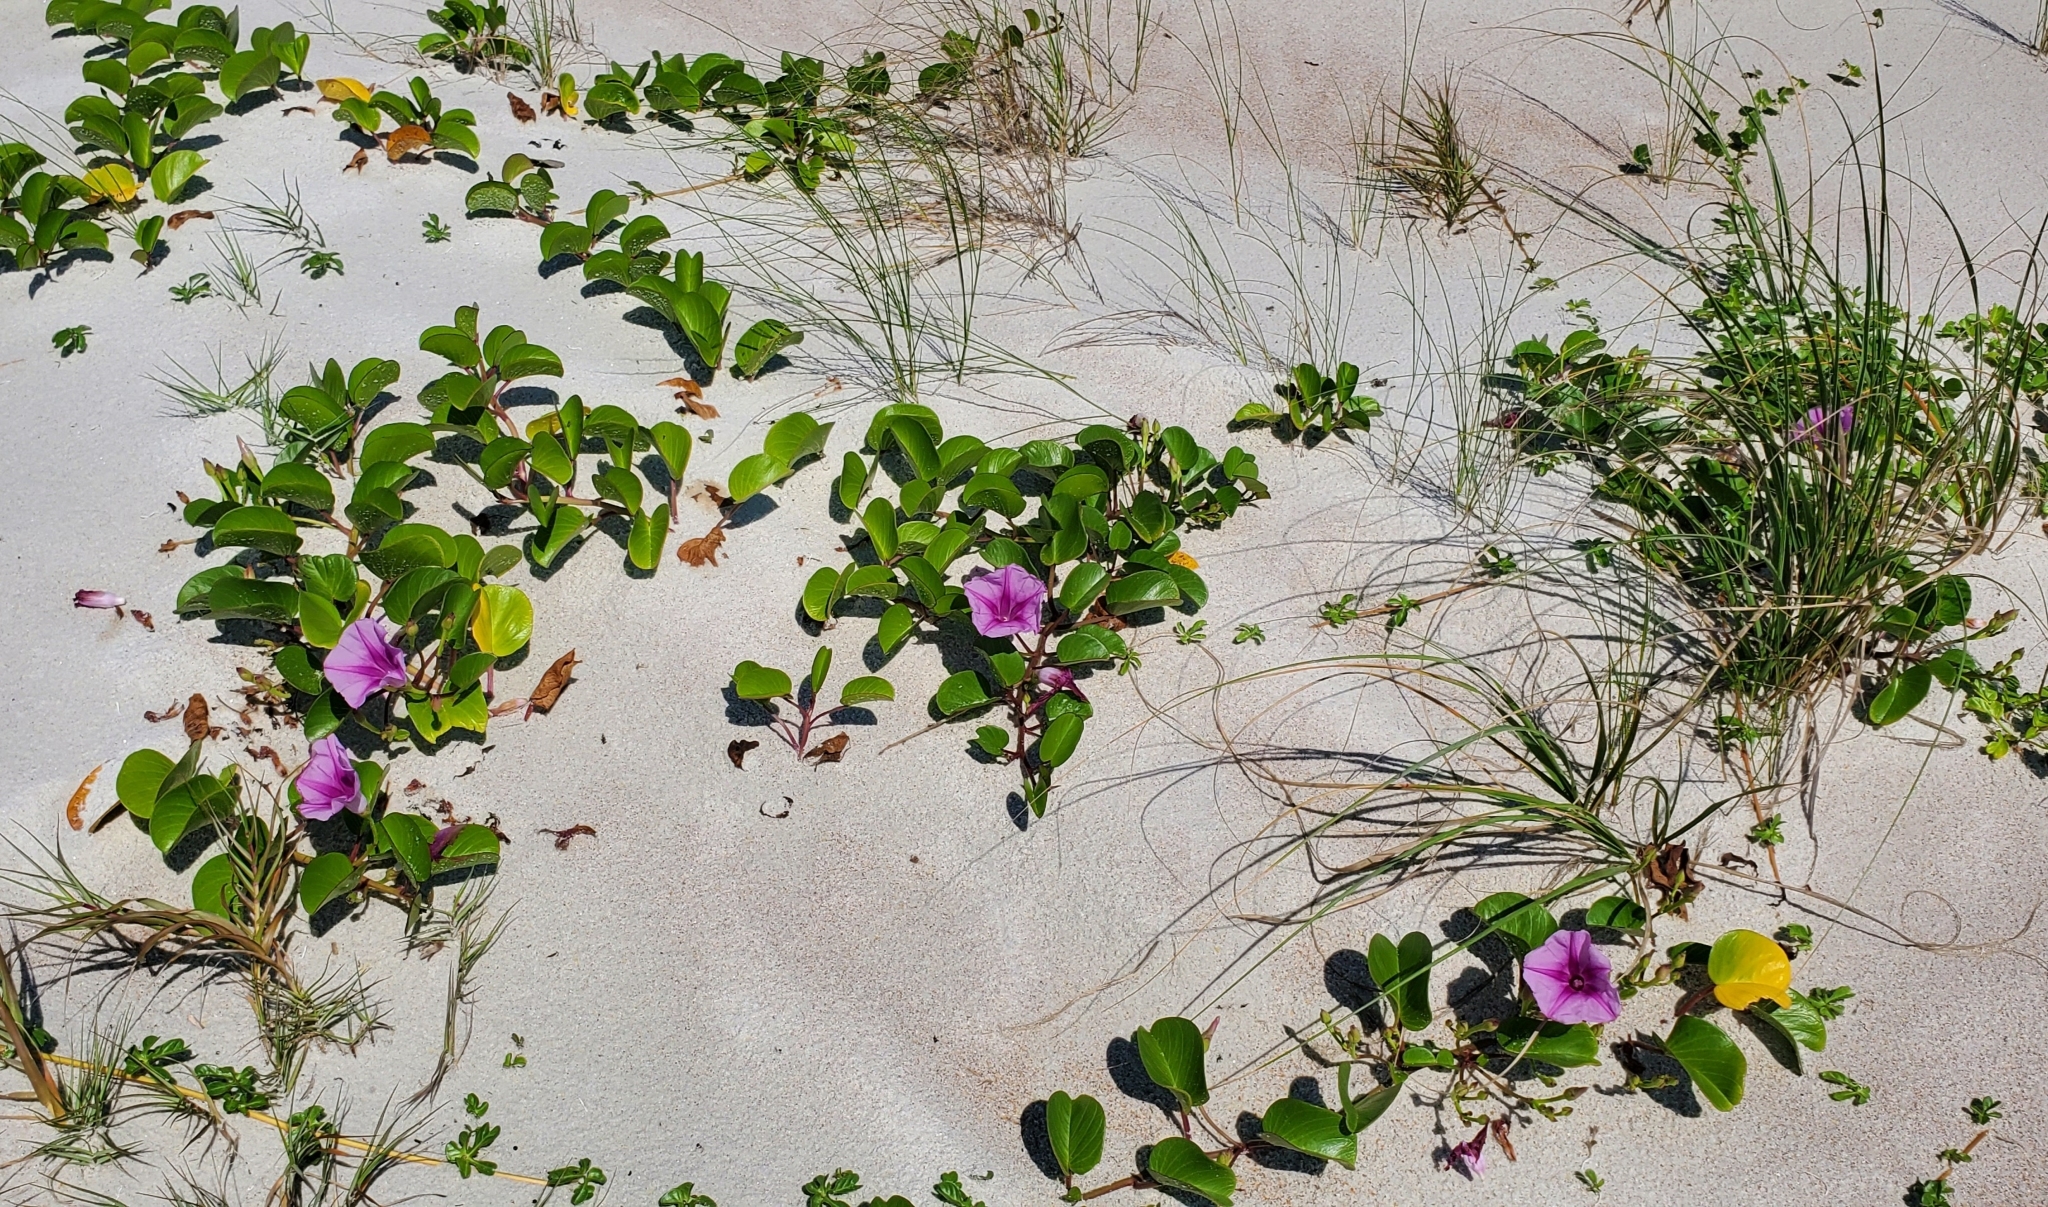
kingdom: Plantae
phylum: Tracheophyta
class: Magnoliopsida
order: Solanales
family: Convolvulaceae
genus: Ipomoea
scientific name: Ipomoea pes-caprae
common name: Beach morning glory
